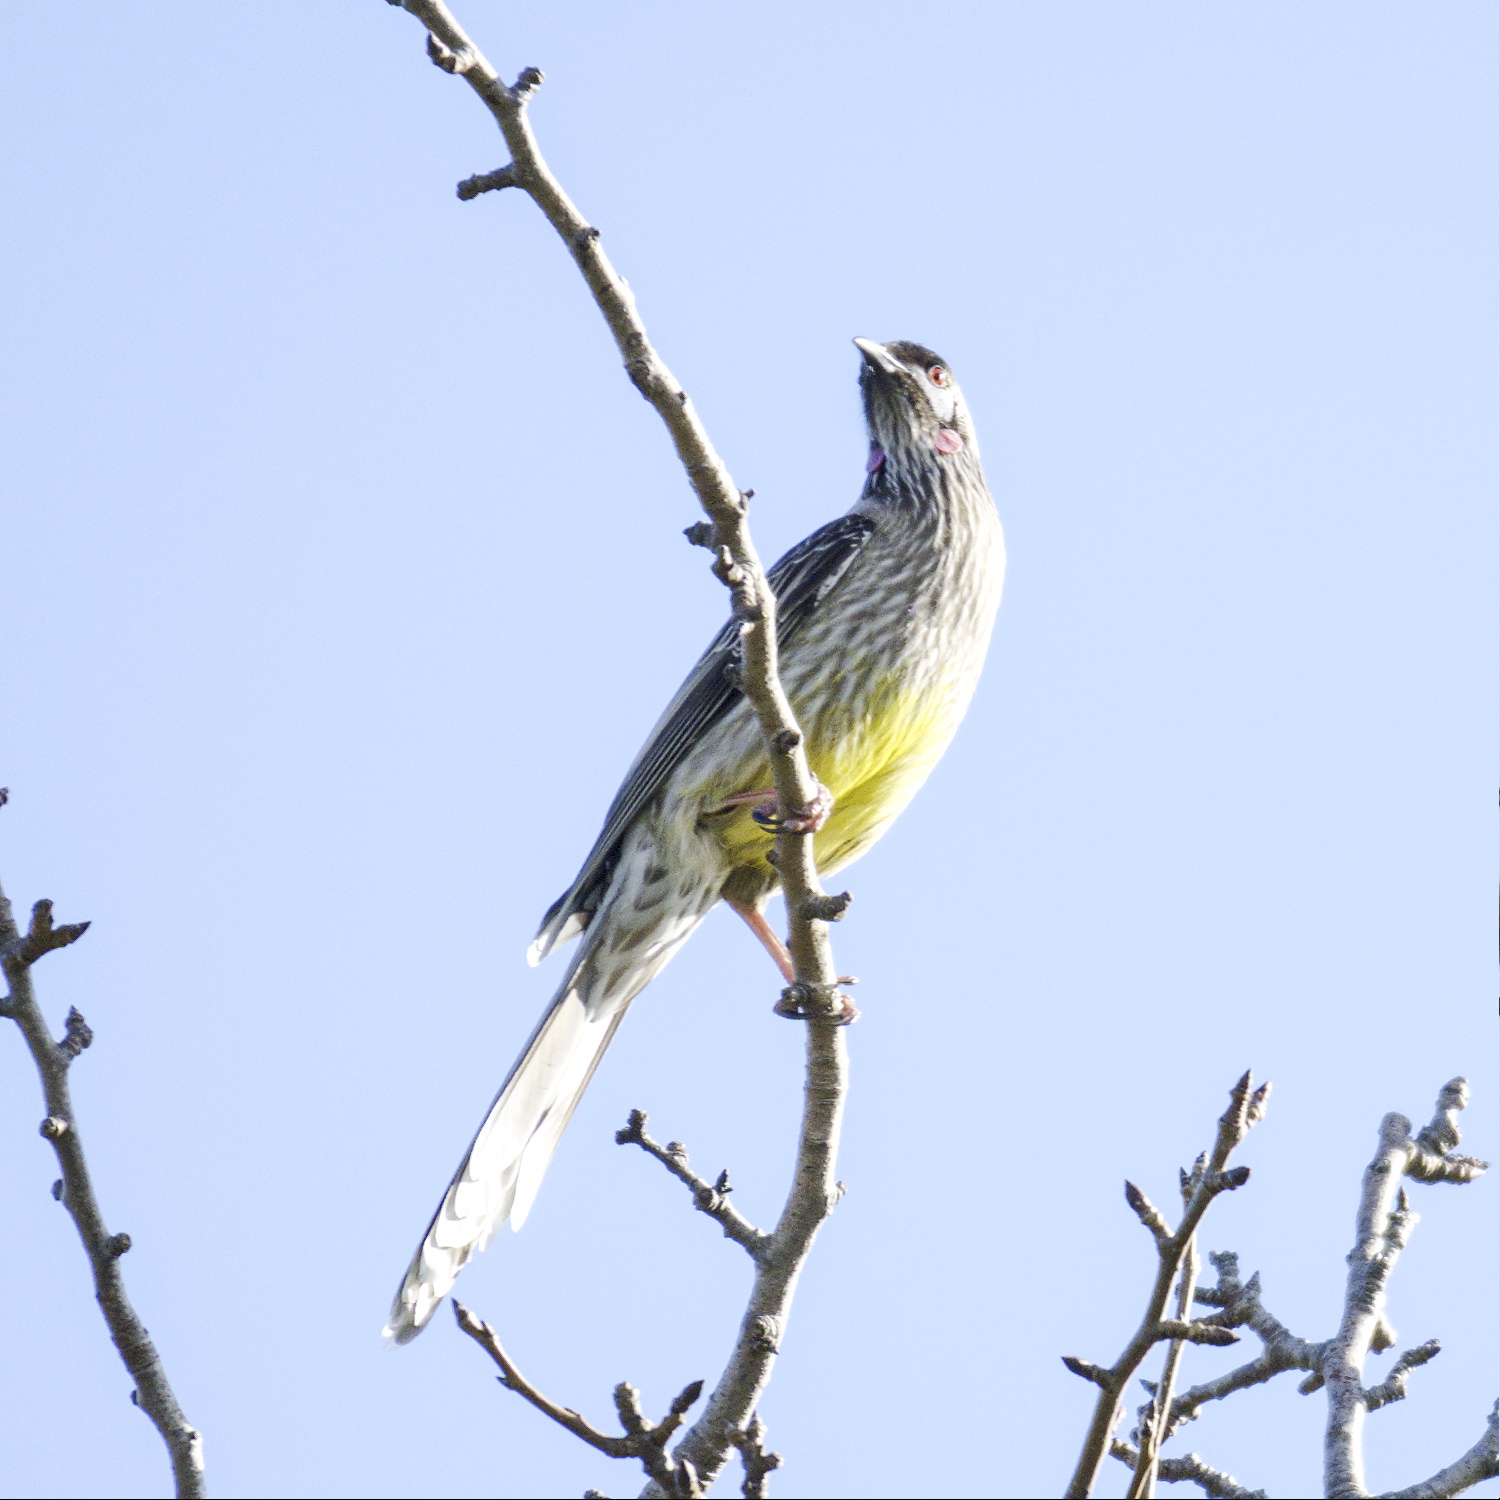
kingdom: Animalia
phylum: Chordata
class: Aves
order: Passeriformes
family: Meliphagidae
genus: Anthochaera
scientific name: Anthochaera carunculata
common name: Red wattlebird
